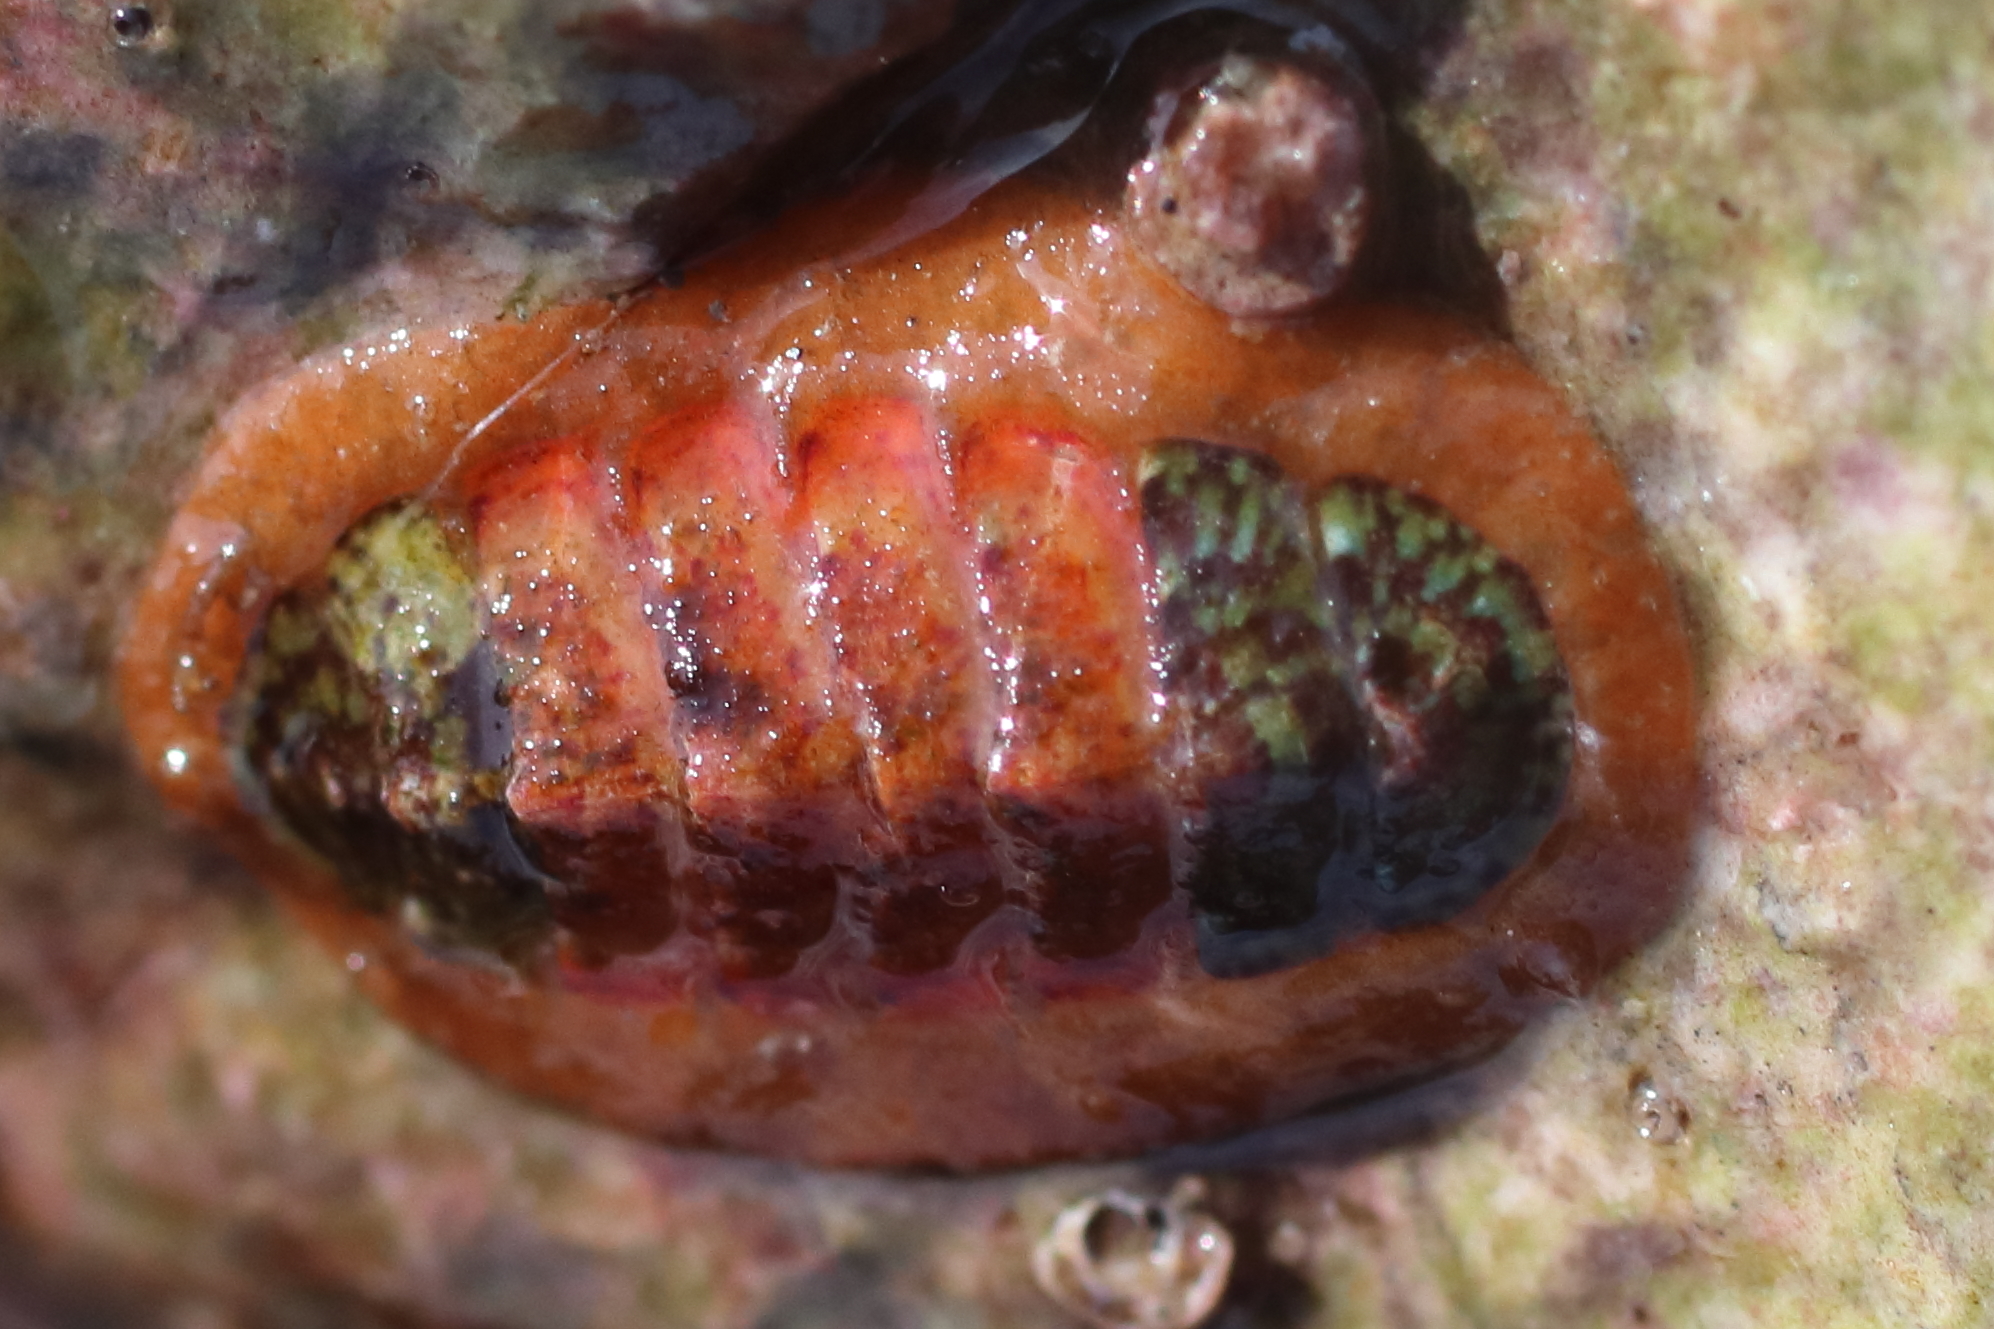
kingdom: Animalia
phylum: Mollusca
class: Polyplacophora
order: Chitonida
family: Mopaliidae
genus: Dendrochiton
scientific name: Dendrochiton flectens
